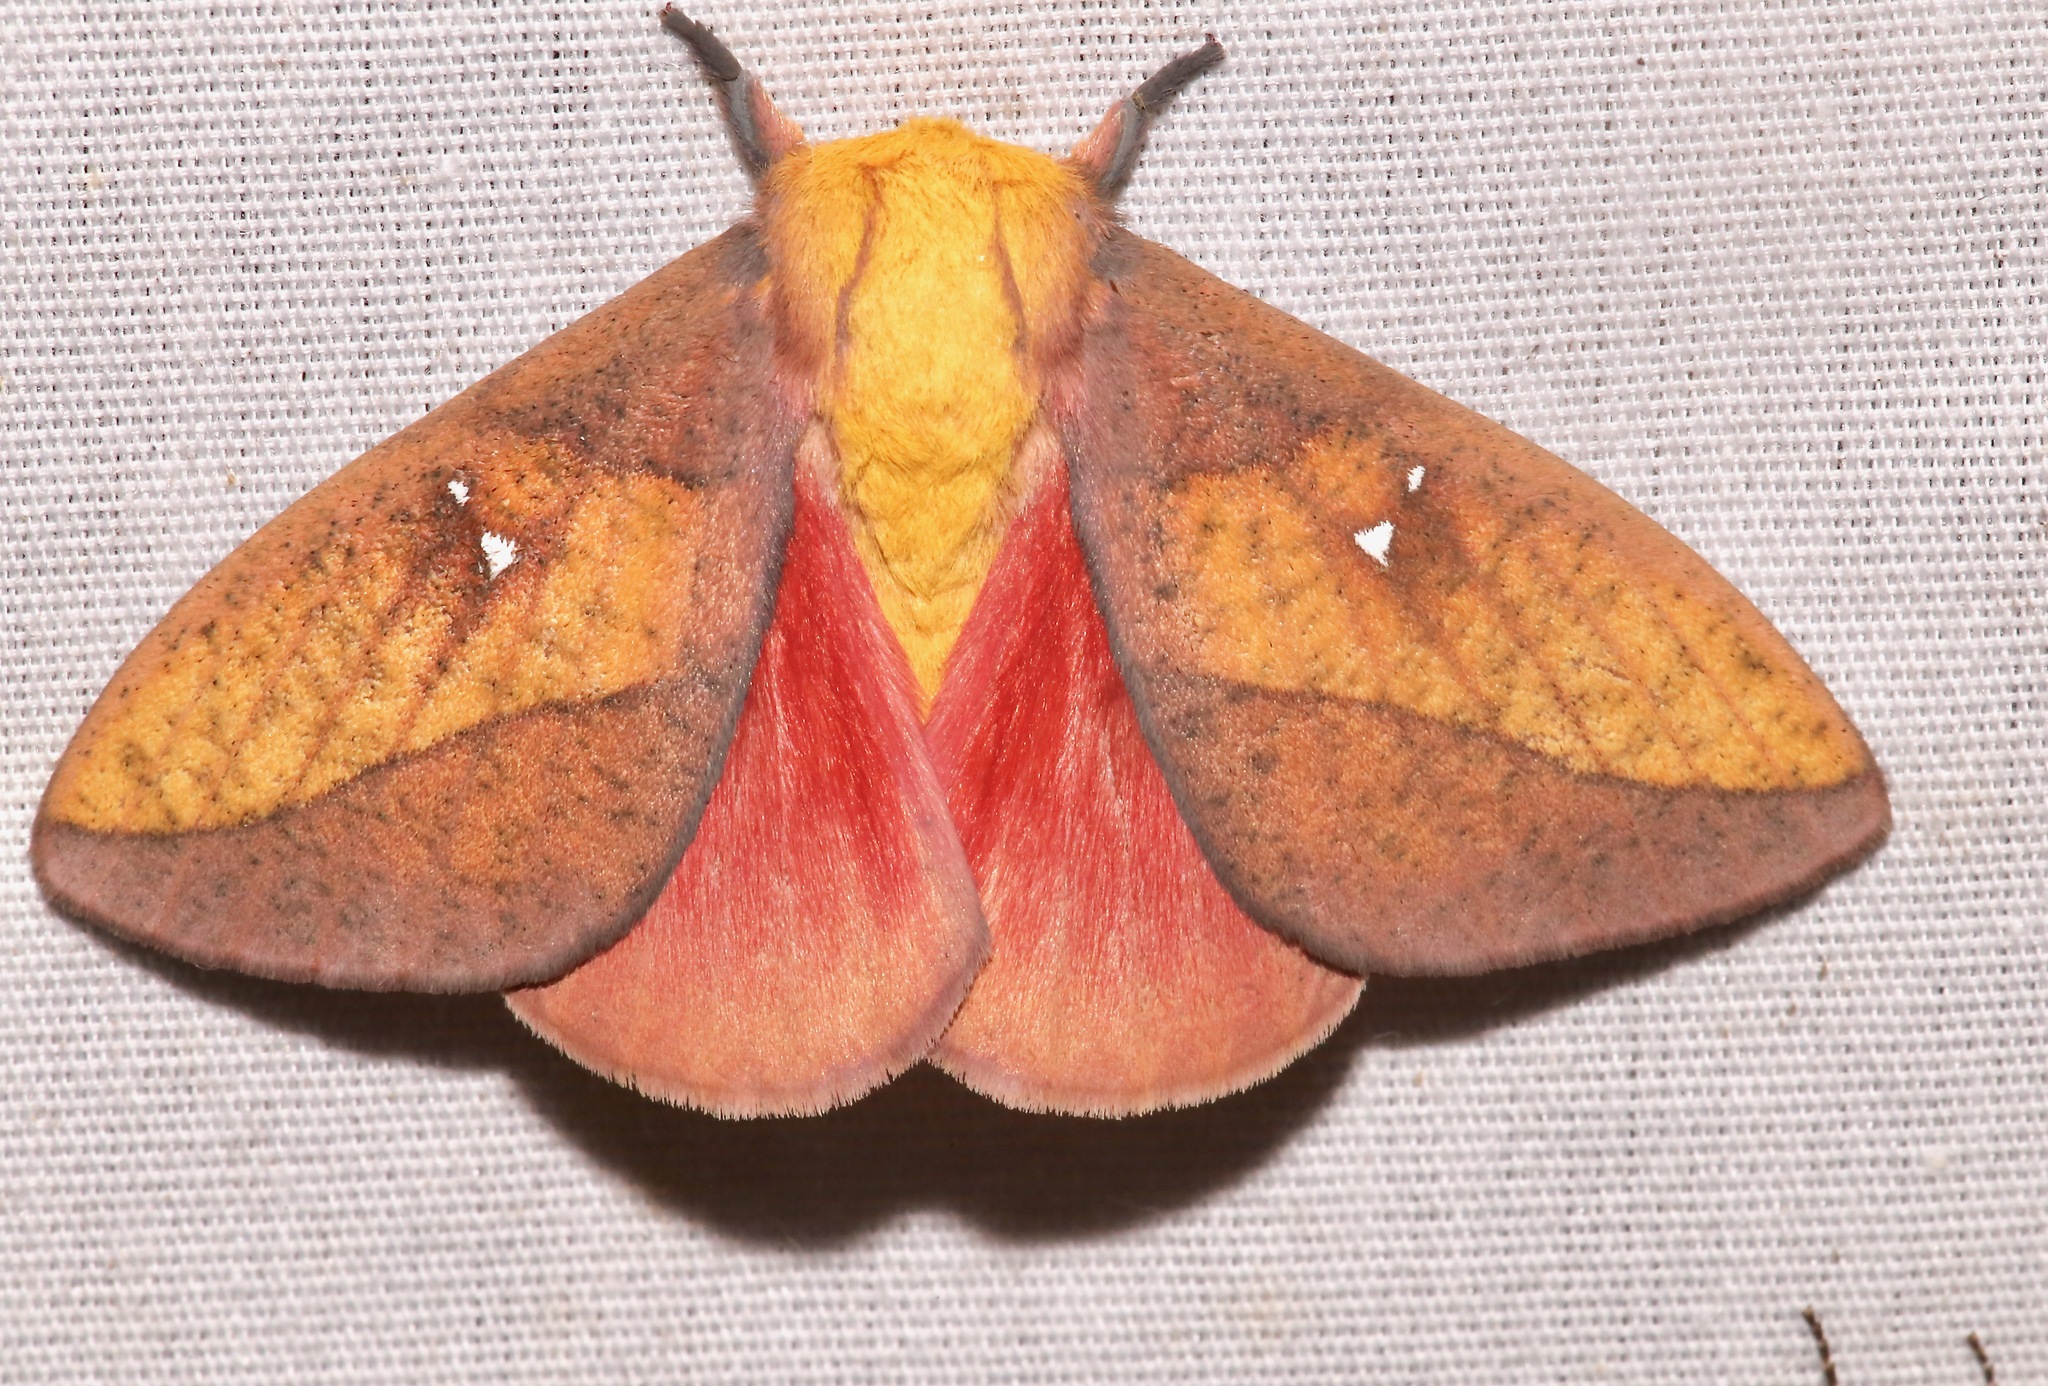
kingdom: Animalia
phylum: Arthropoda
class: Insecta
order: Lepidoptera
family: Saturniidae
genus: Syssphinx
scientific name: Syssphinx montana
